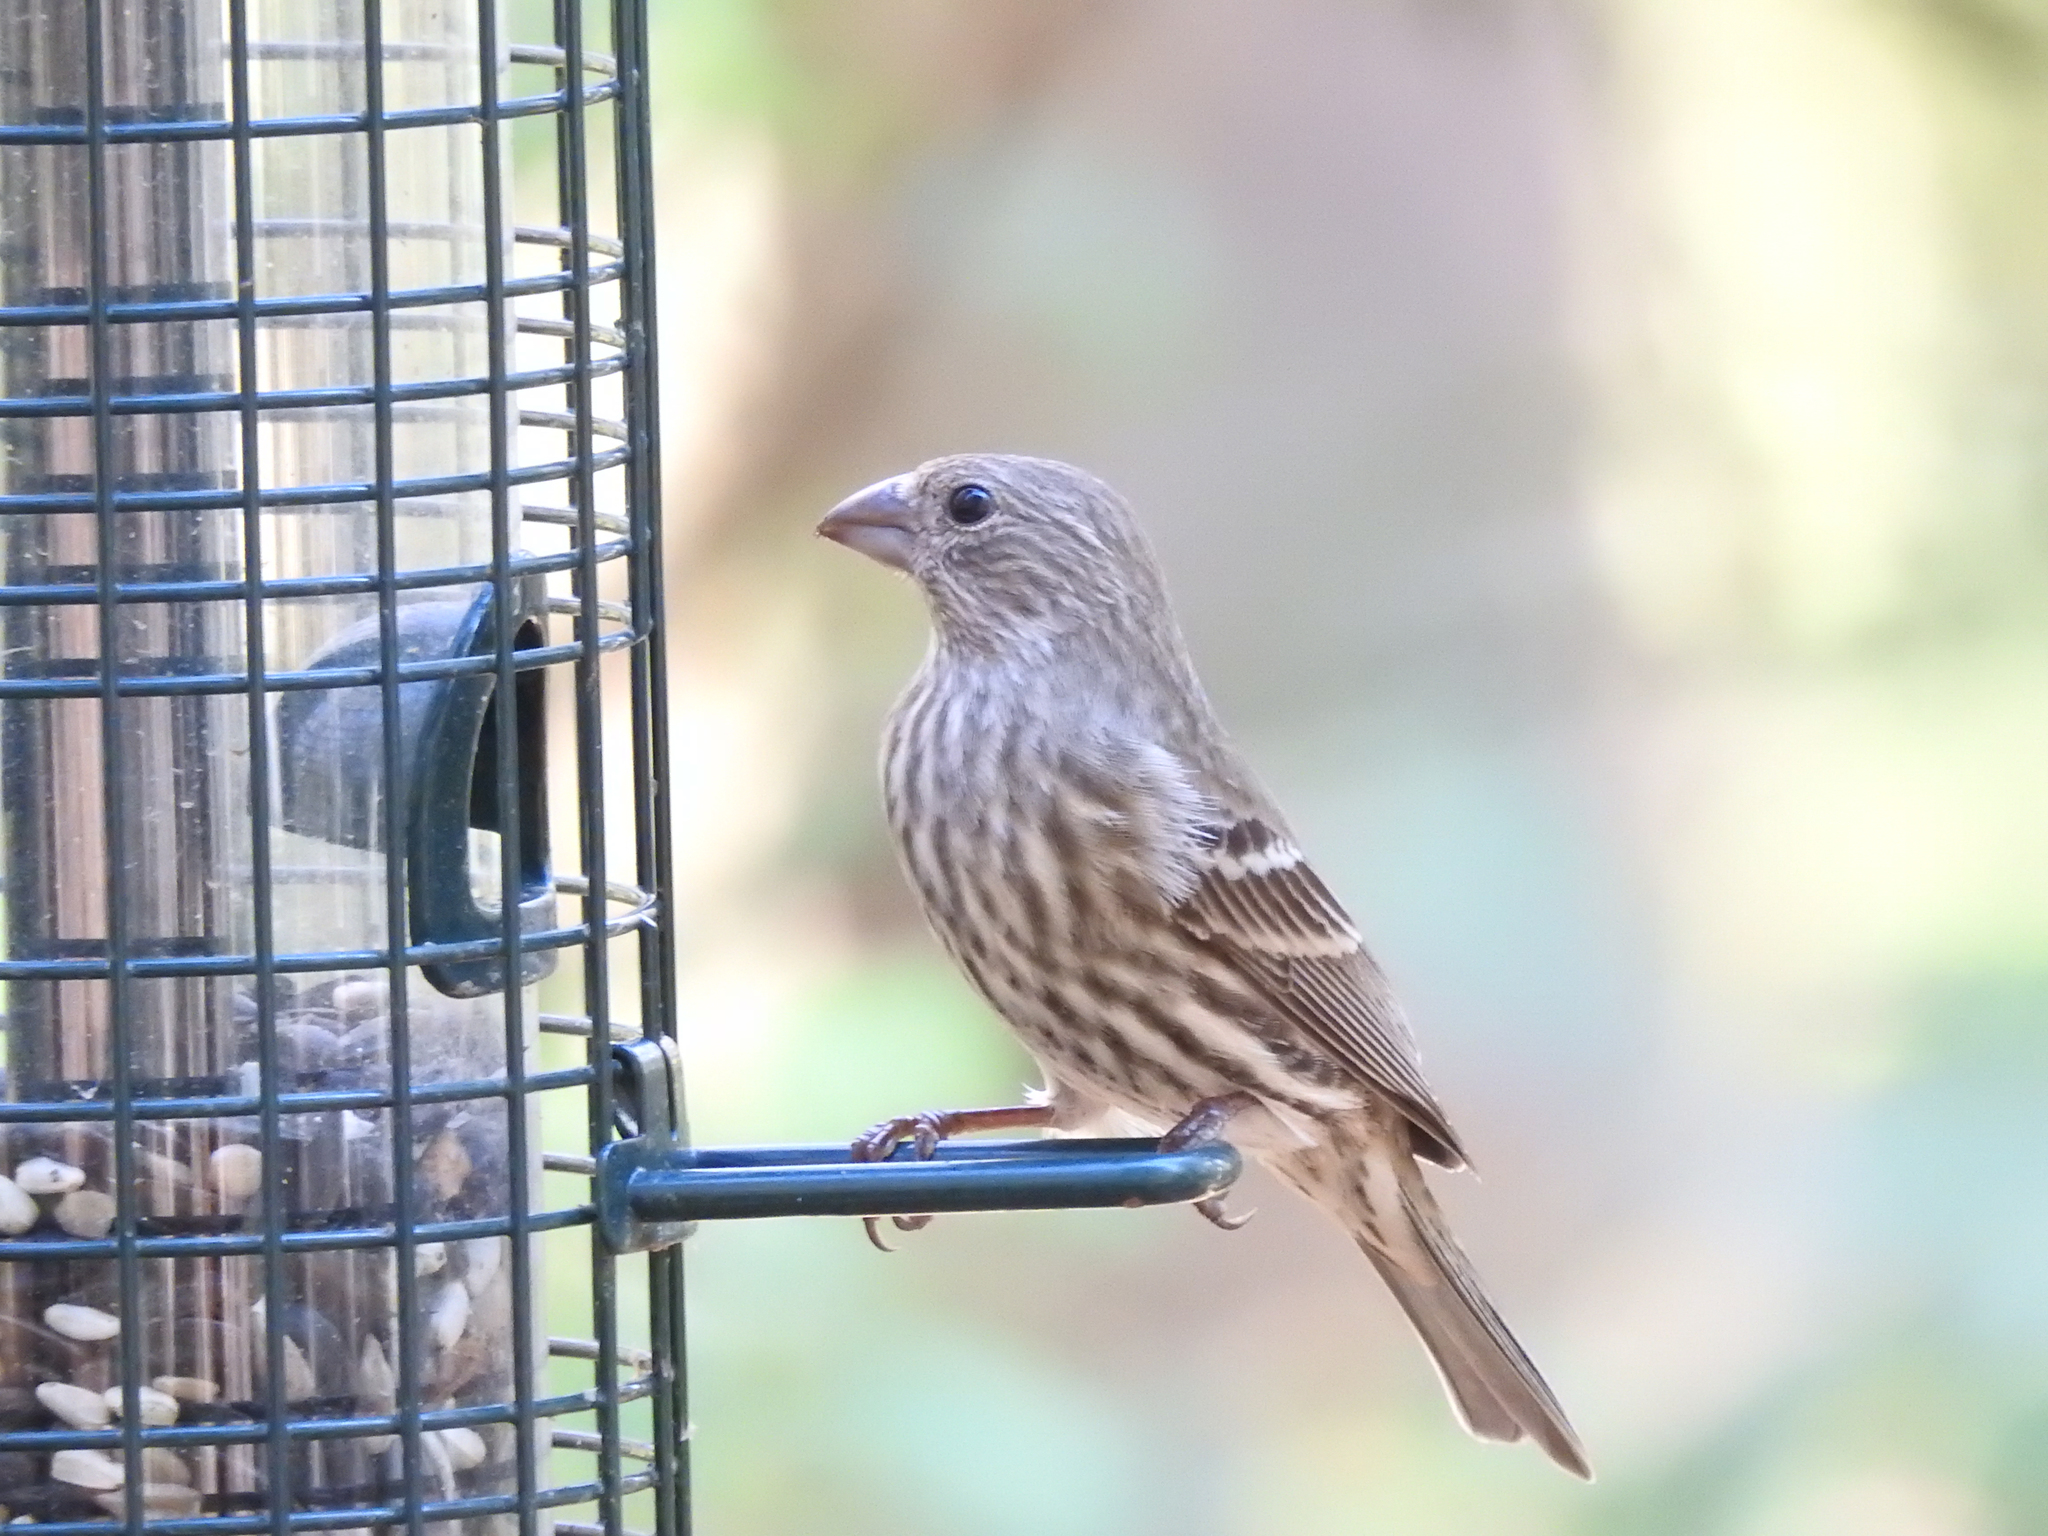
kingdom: Animalia
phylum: Chordata
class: Aves
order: Passeriformes
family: Fringillidae
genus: Haemorhous
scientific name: Haemorhous mexicanus
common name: House finch
